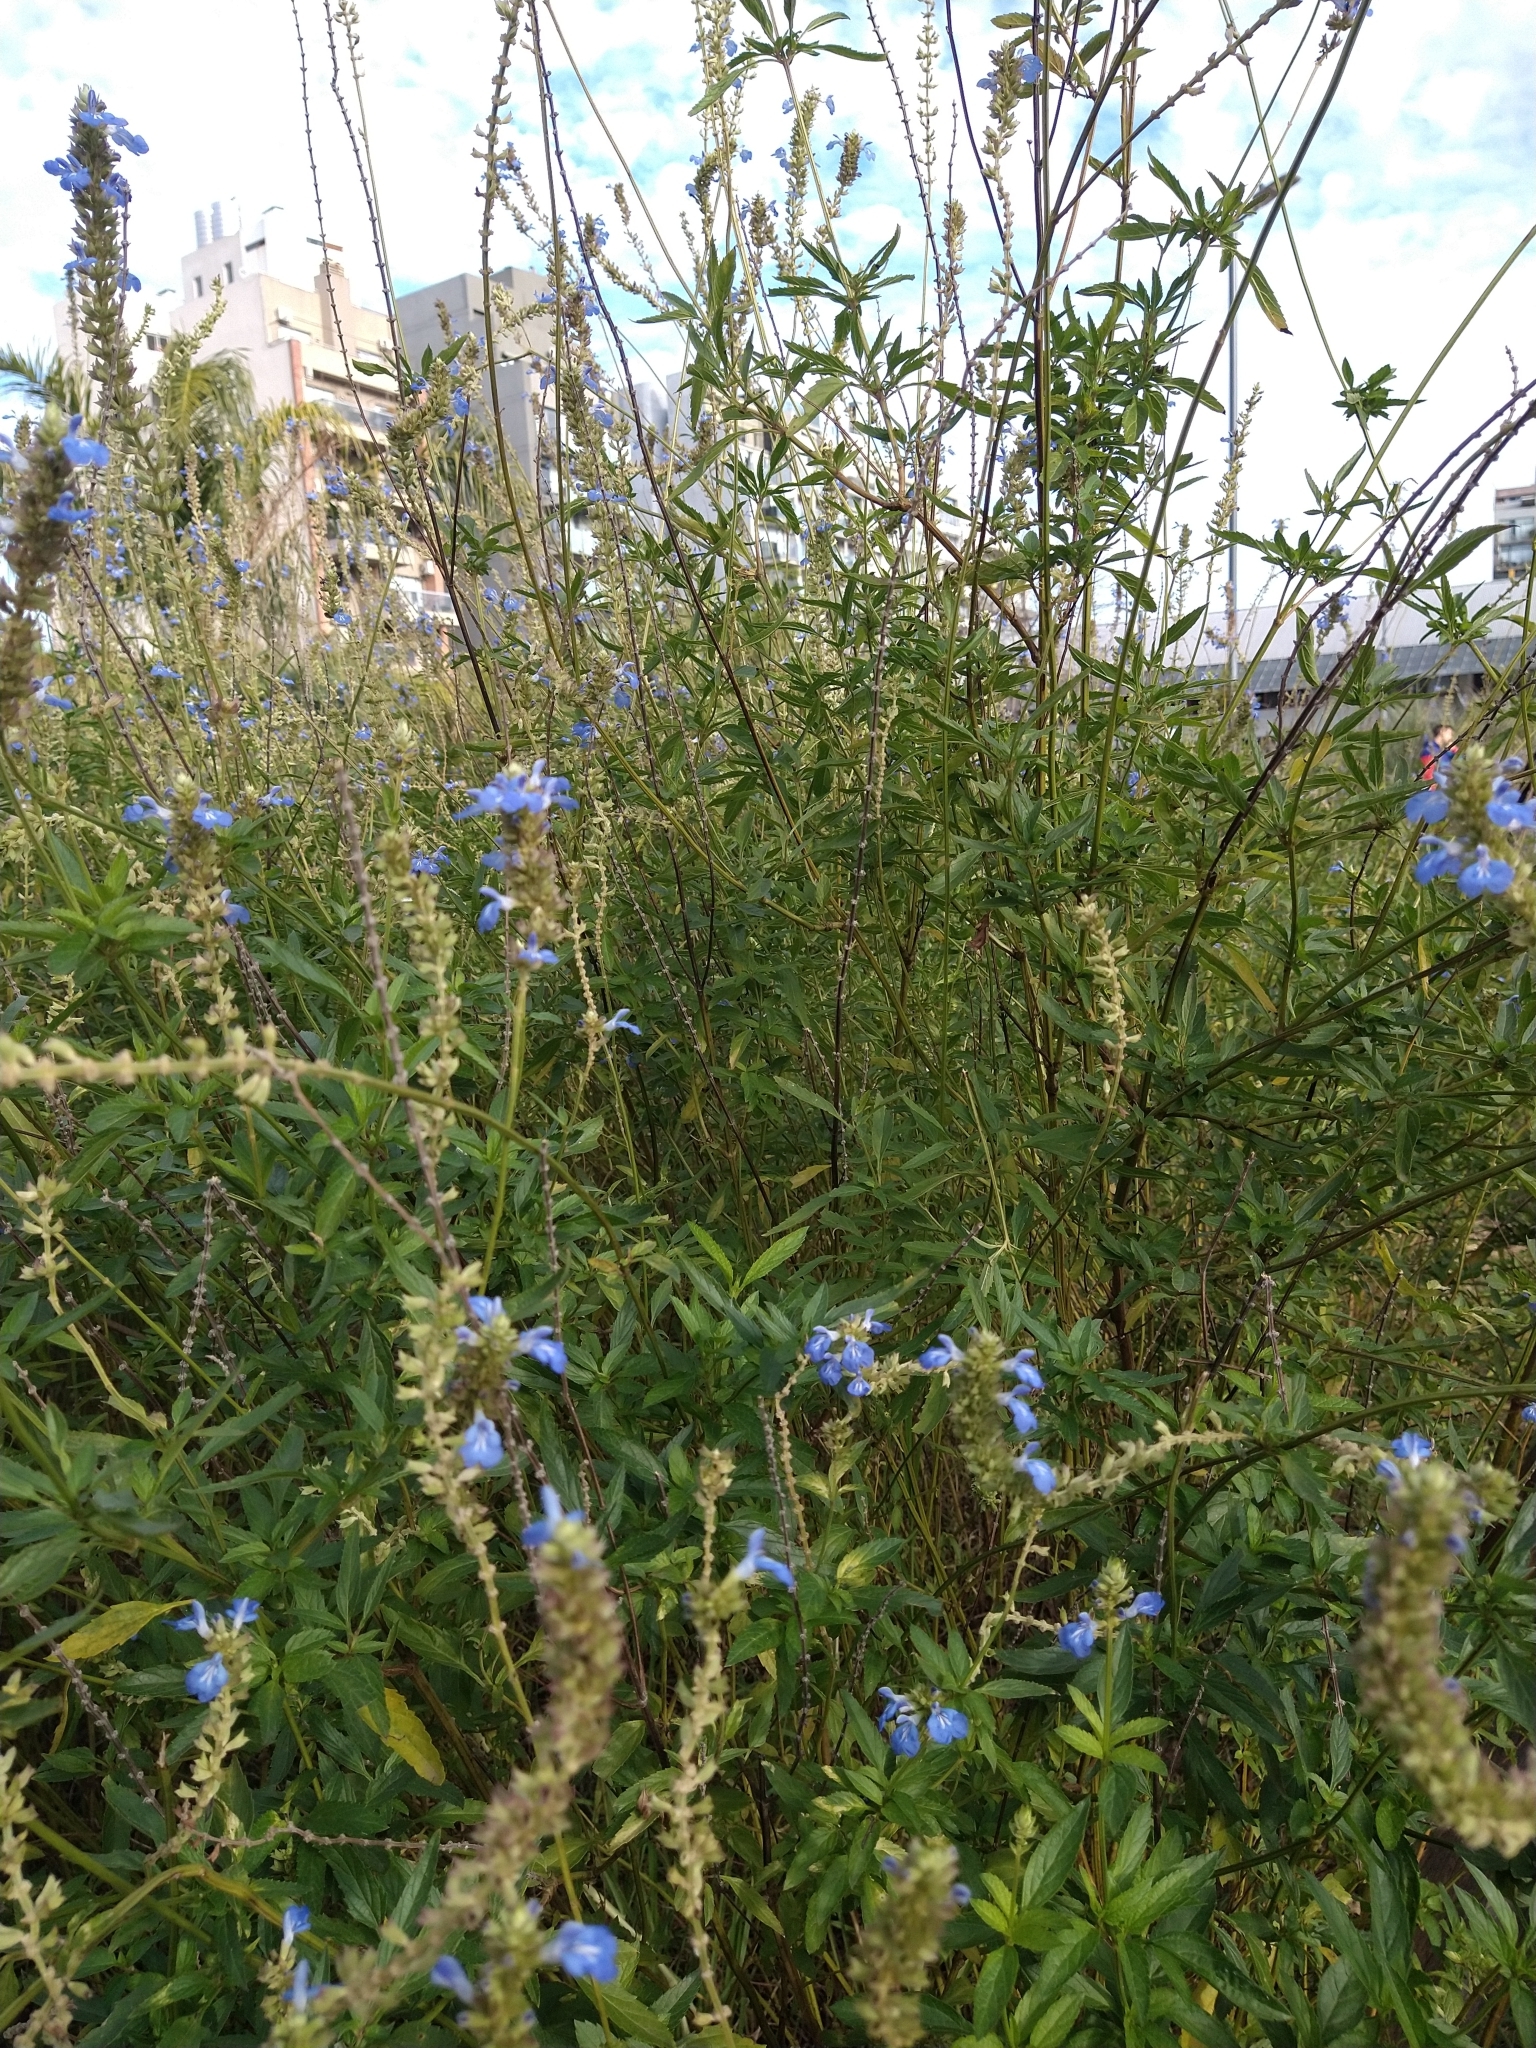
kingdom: Plantae
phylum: Tracheophyta
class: Magnoliopsida
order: Lamiales
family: Lamiaceae
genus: Salvia
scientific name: Salvia uliginosa
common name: Bog sage
